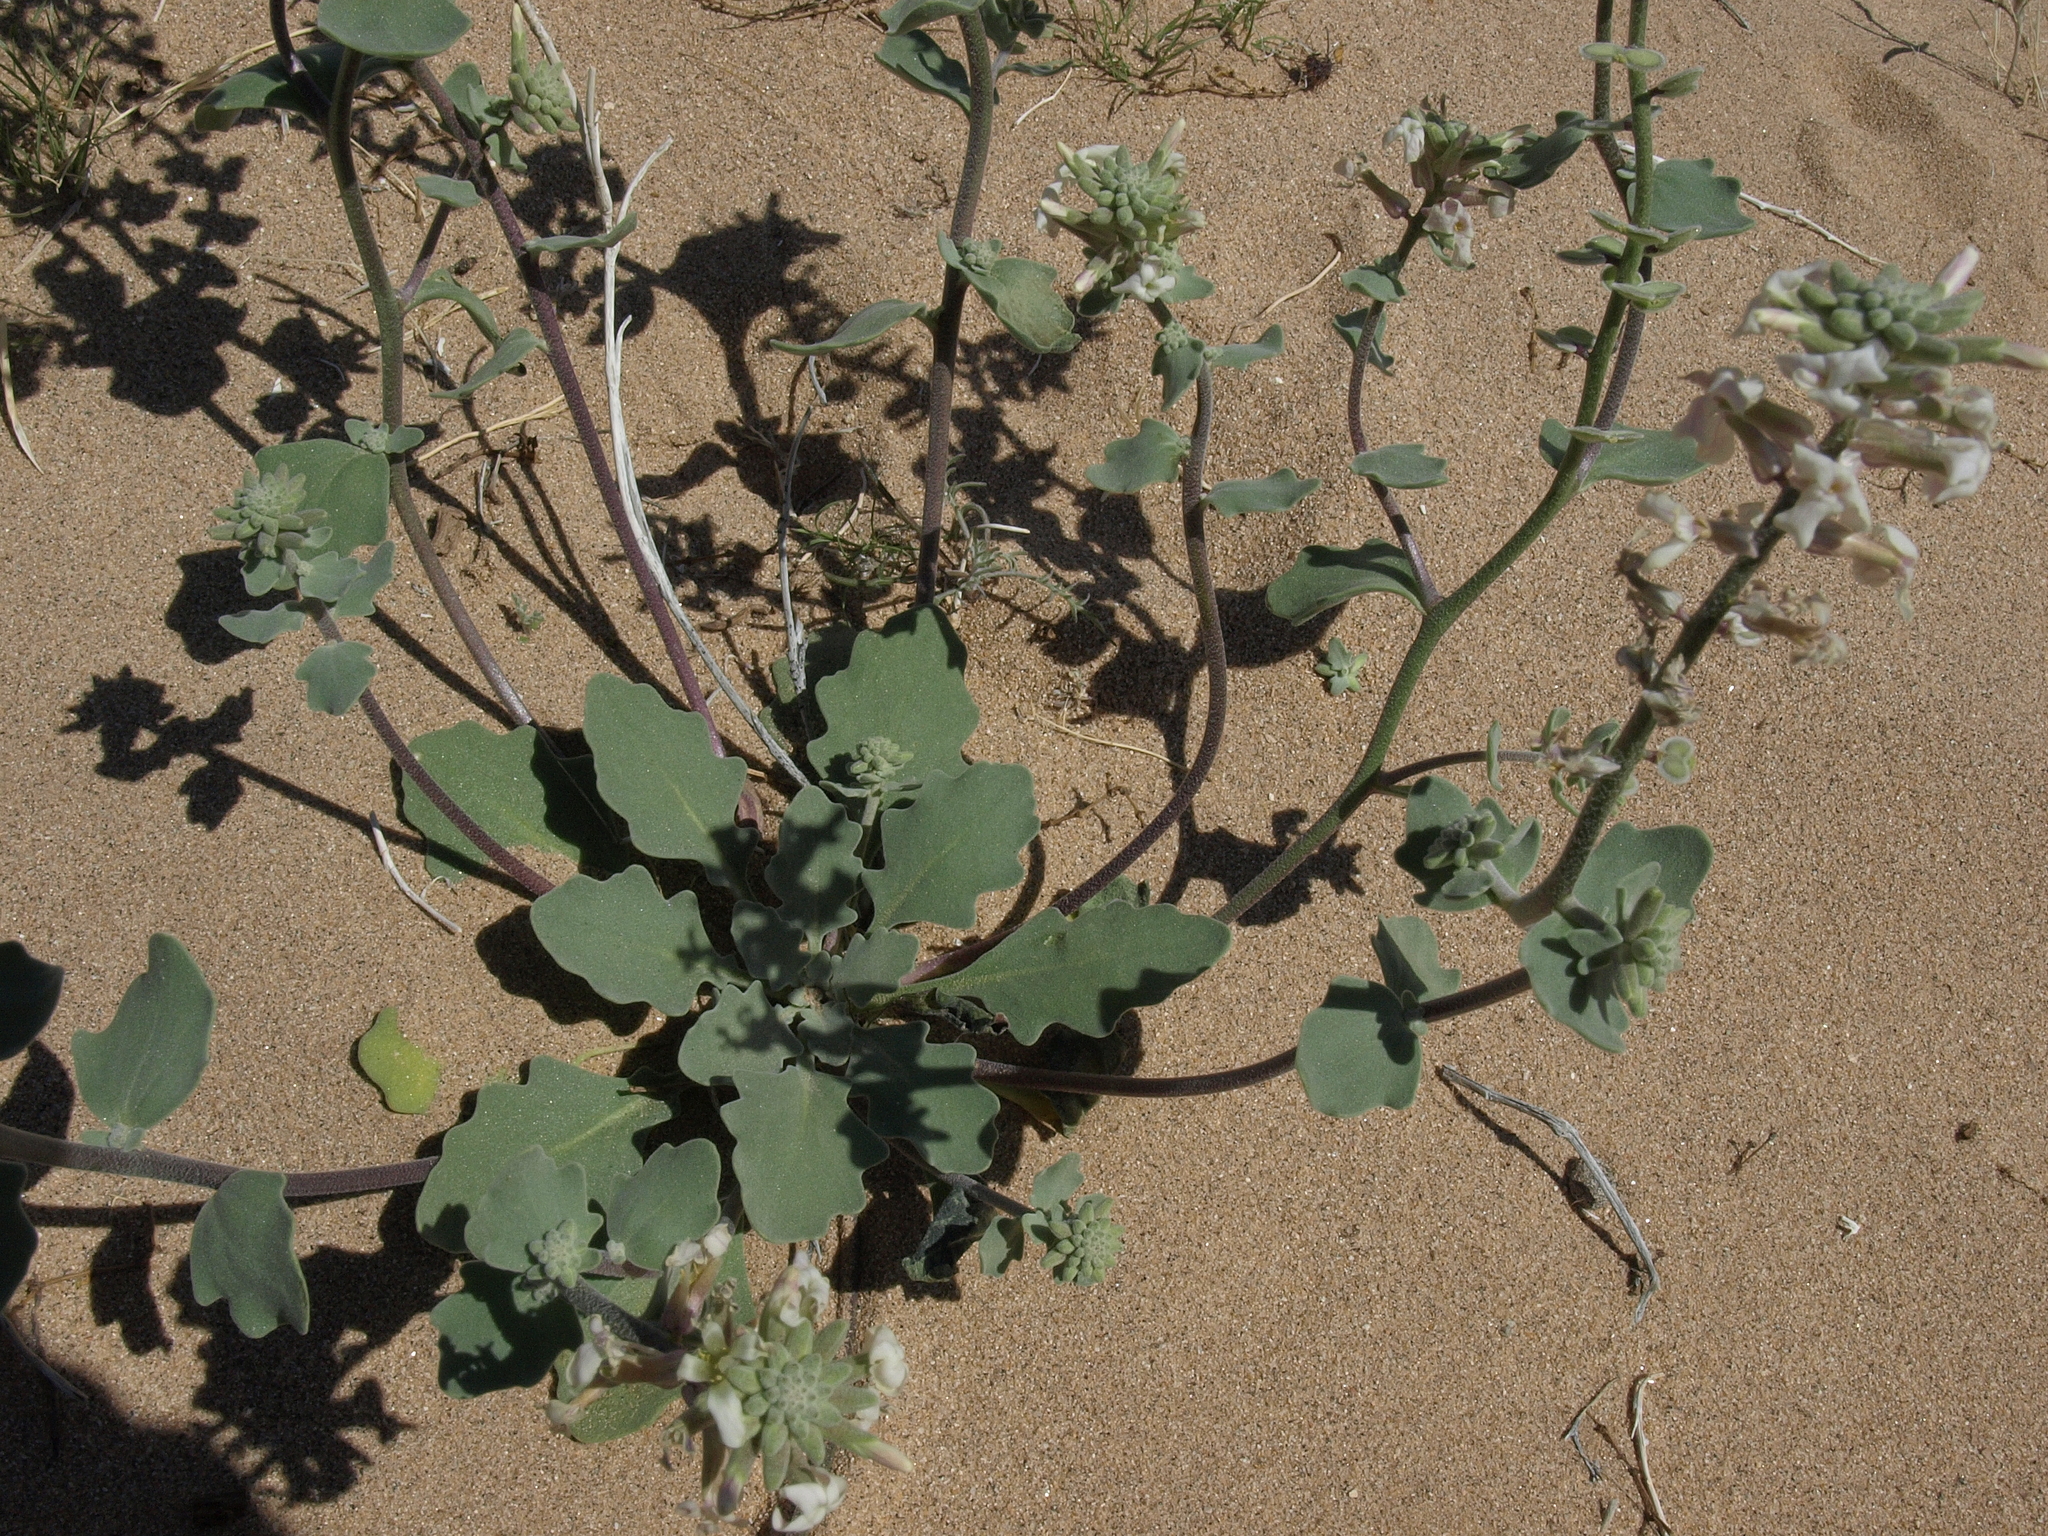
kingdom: Plantae
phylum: Tracheophyta
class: Magnoliopsida
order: Brassicales
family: Brassicaceae
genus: Dithyrea
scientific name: Dithyrea californica
